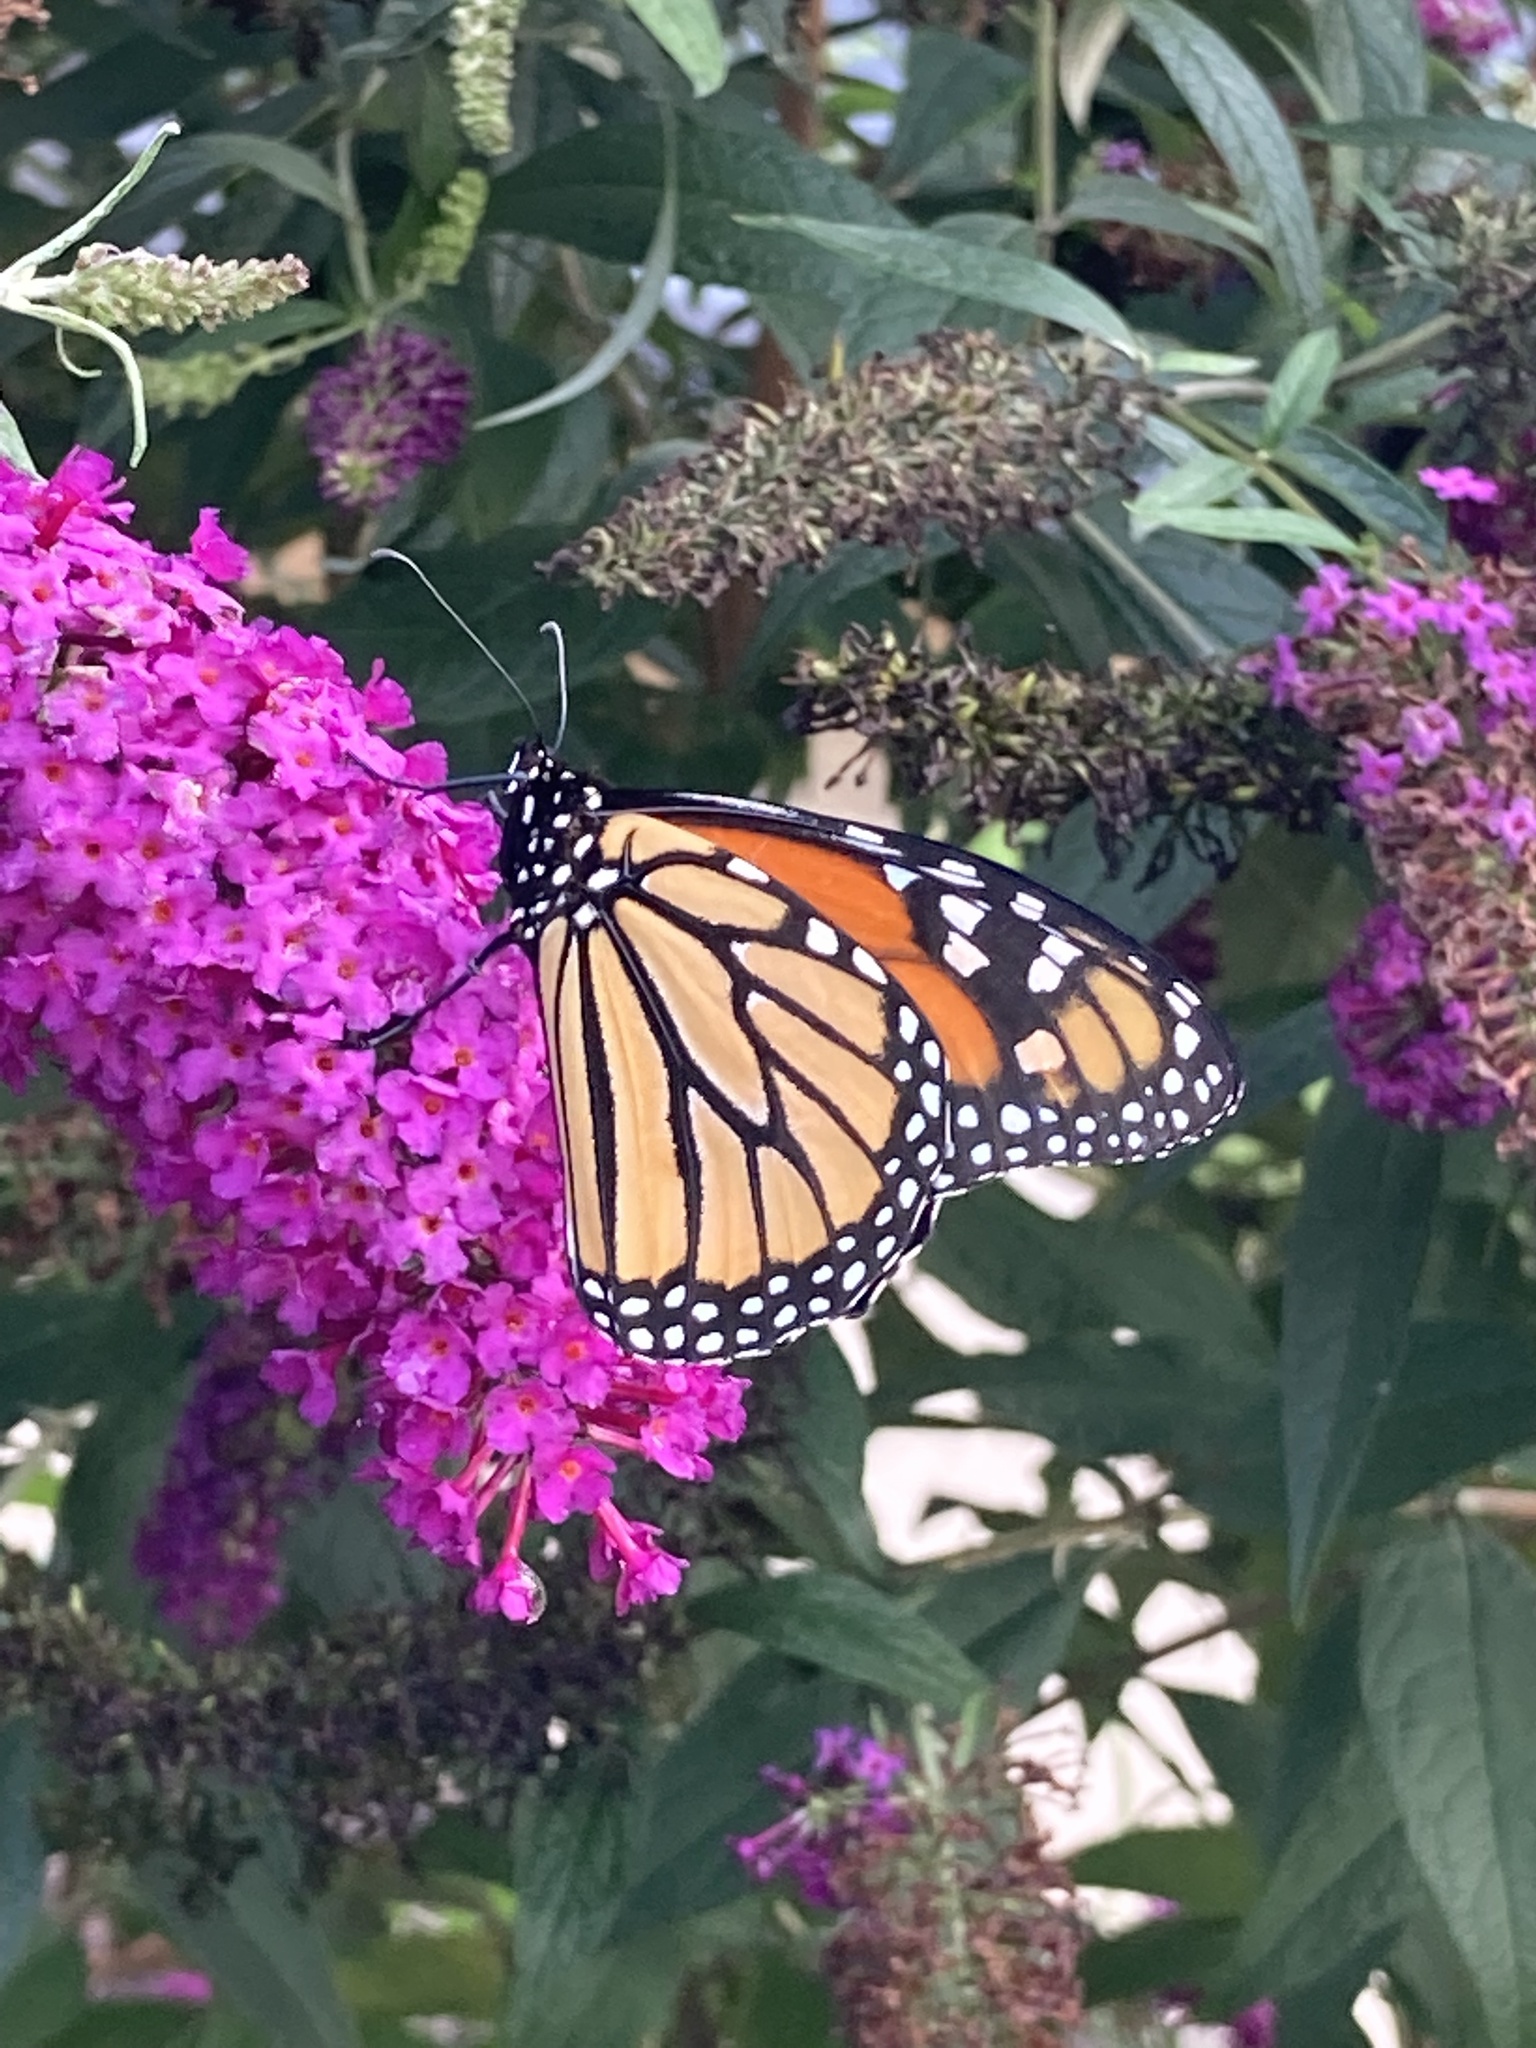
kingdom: Animalia
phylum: Arthropoda
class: Insecta
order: Lepidoptera
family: Nymphalidae
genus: Danaus
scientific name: Danaus plexippus
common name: Monarch
